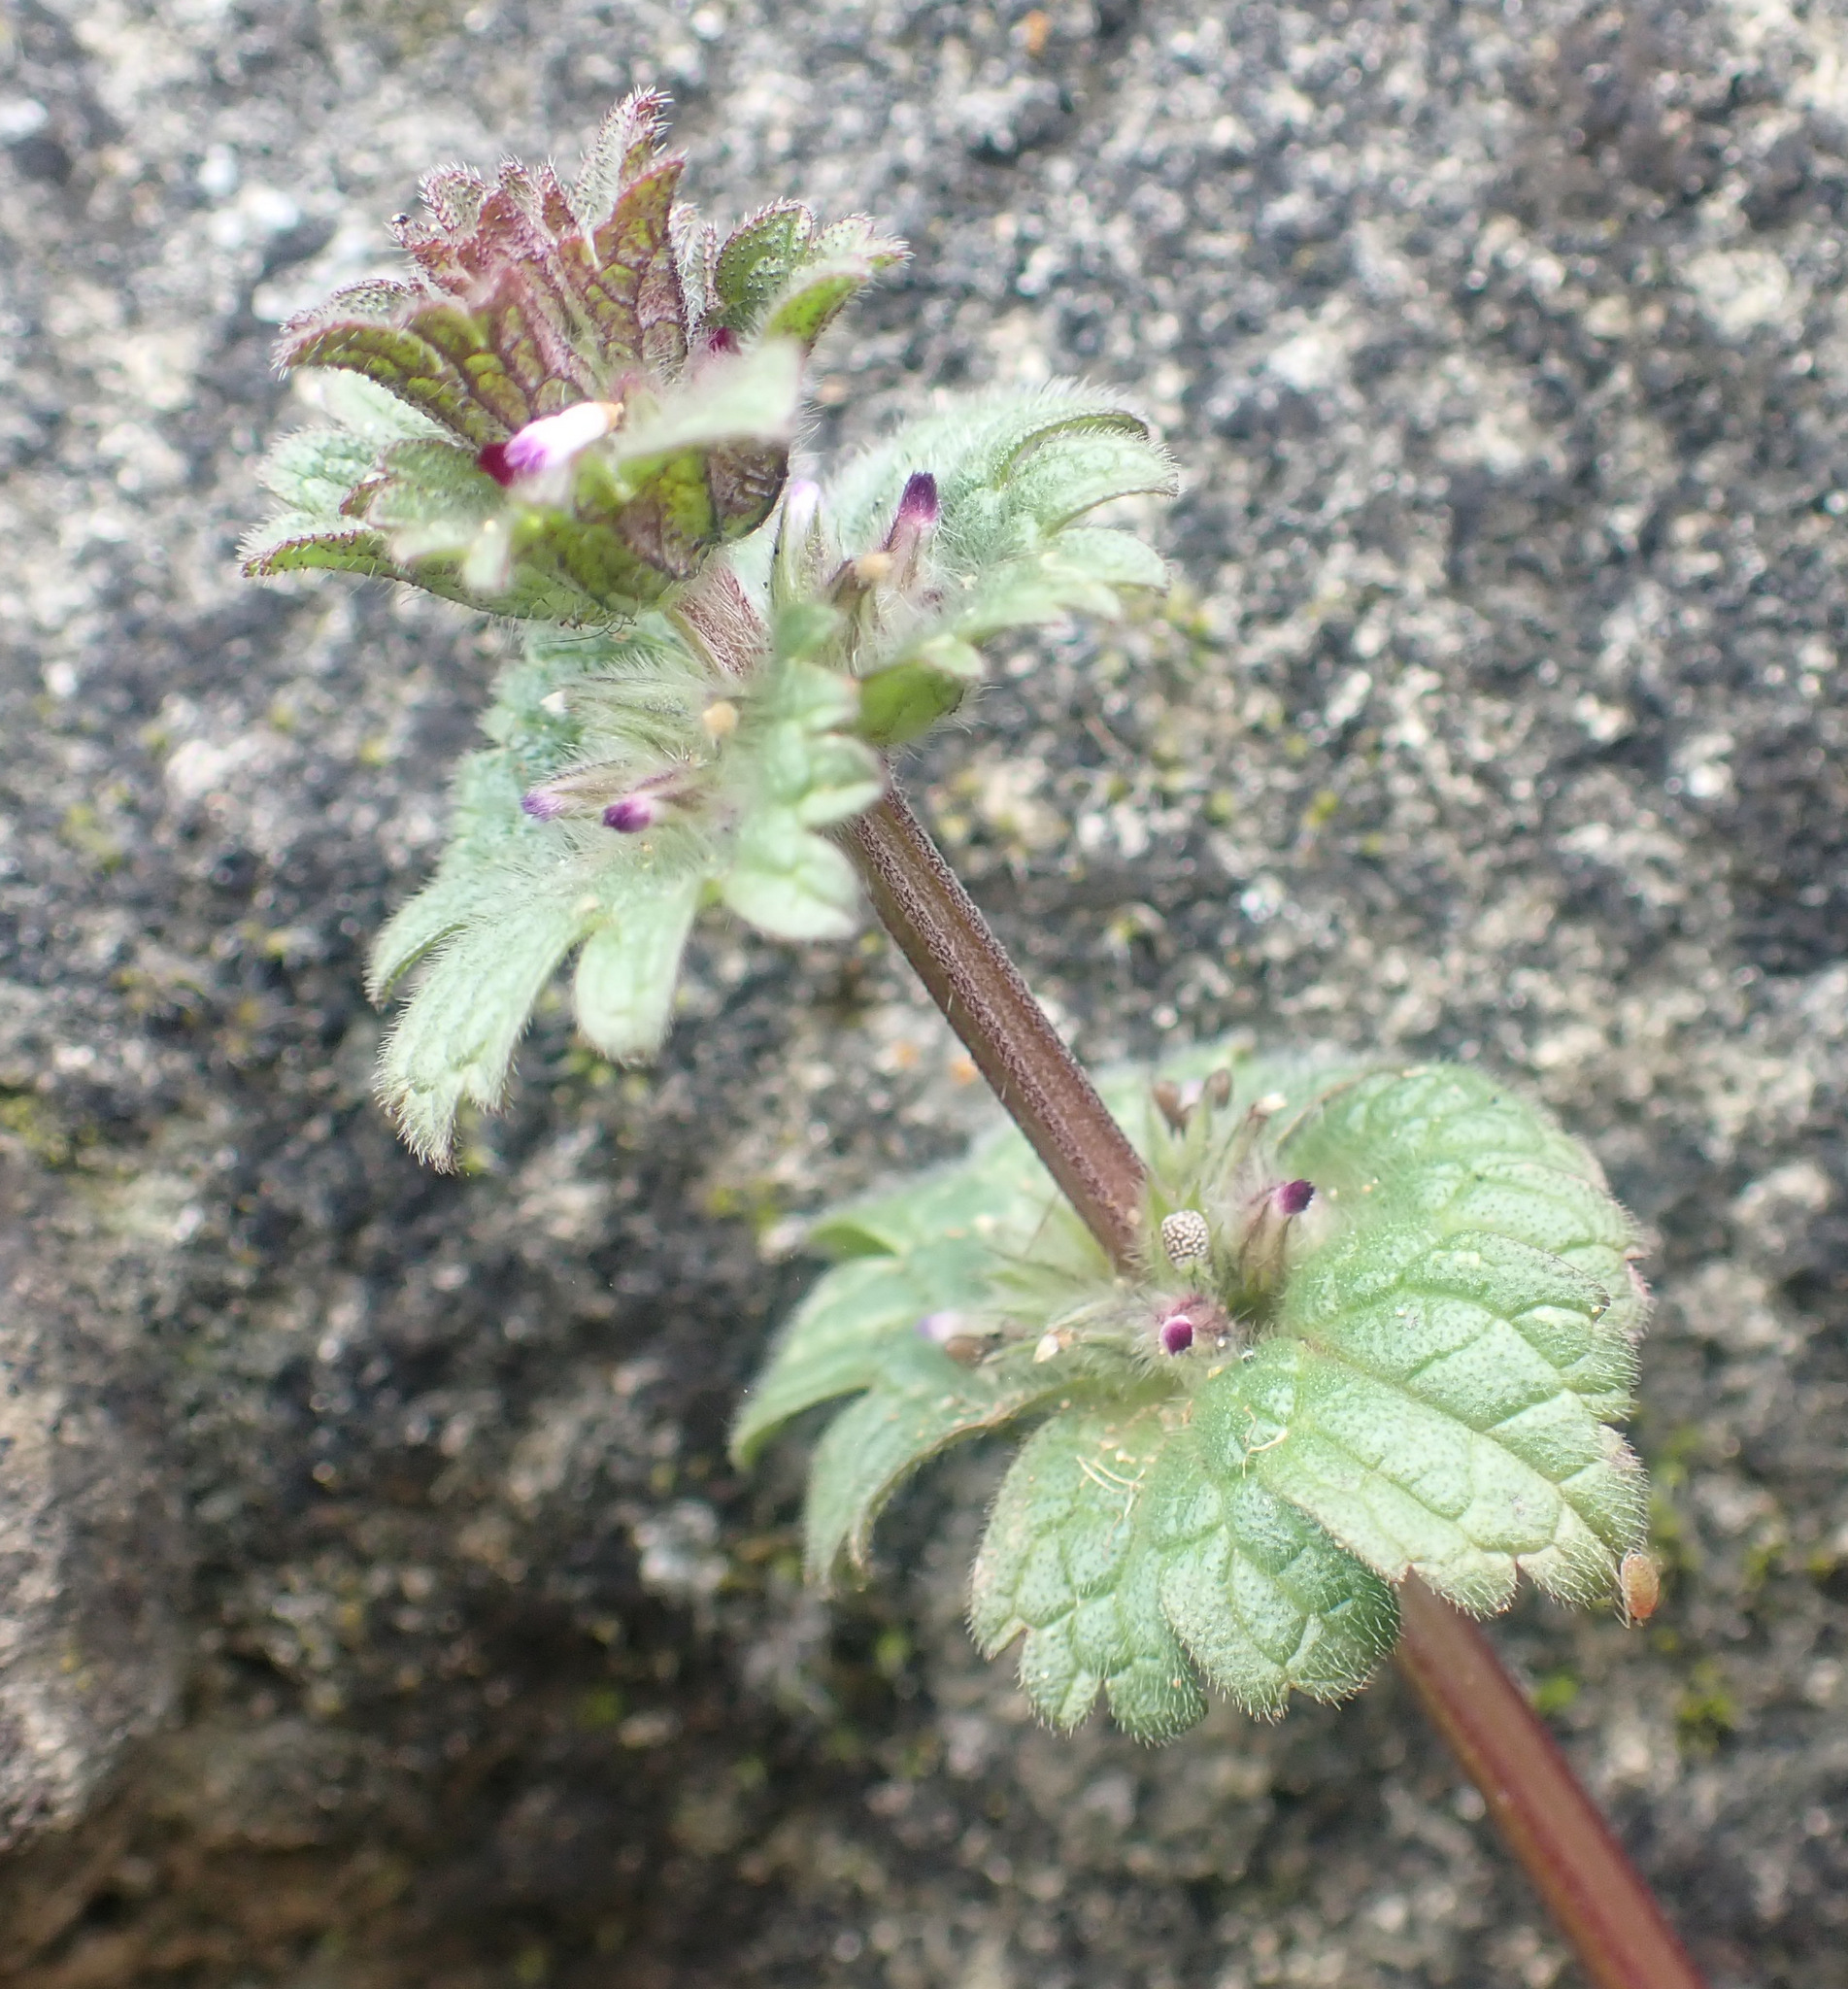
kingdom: Plantae
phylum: Tracheophyta
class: Magnoliopsida
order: Lamiales
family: Lamiaceae
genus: Lamium
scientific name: Lamium amplexicaule
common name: Henbit dead-nettle
